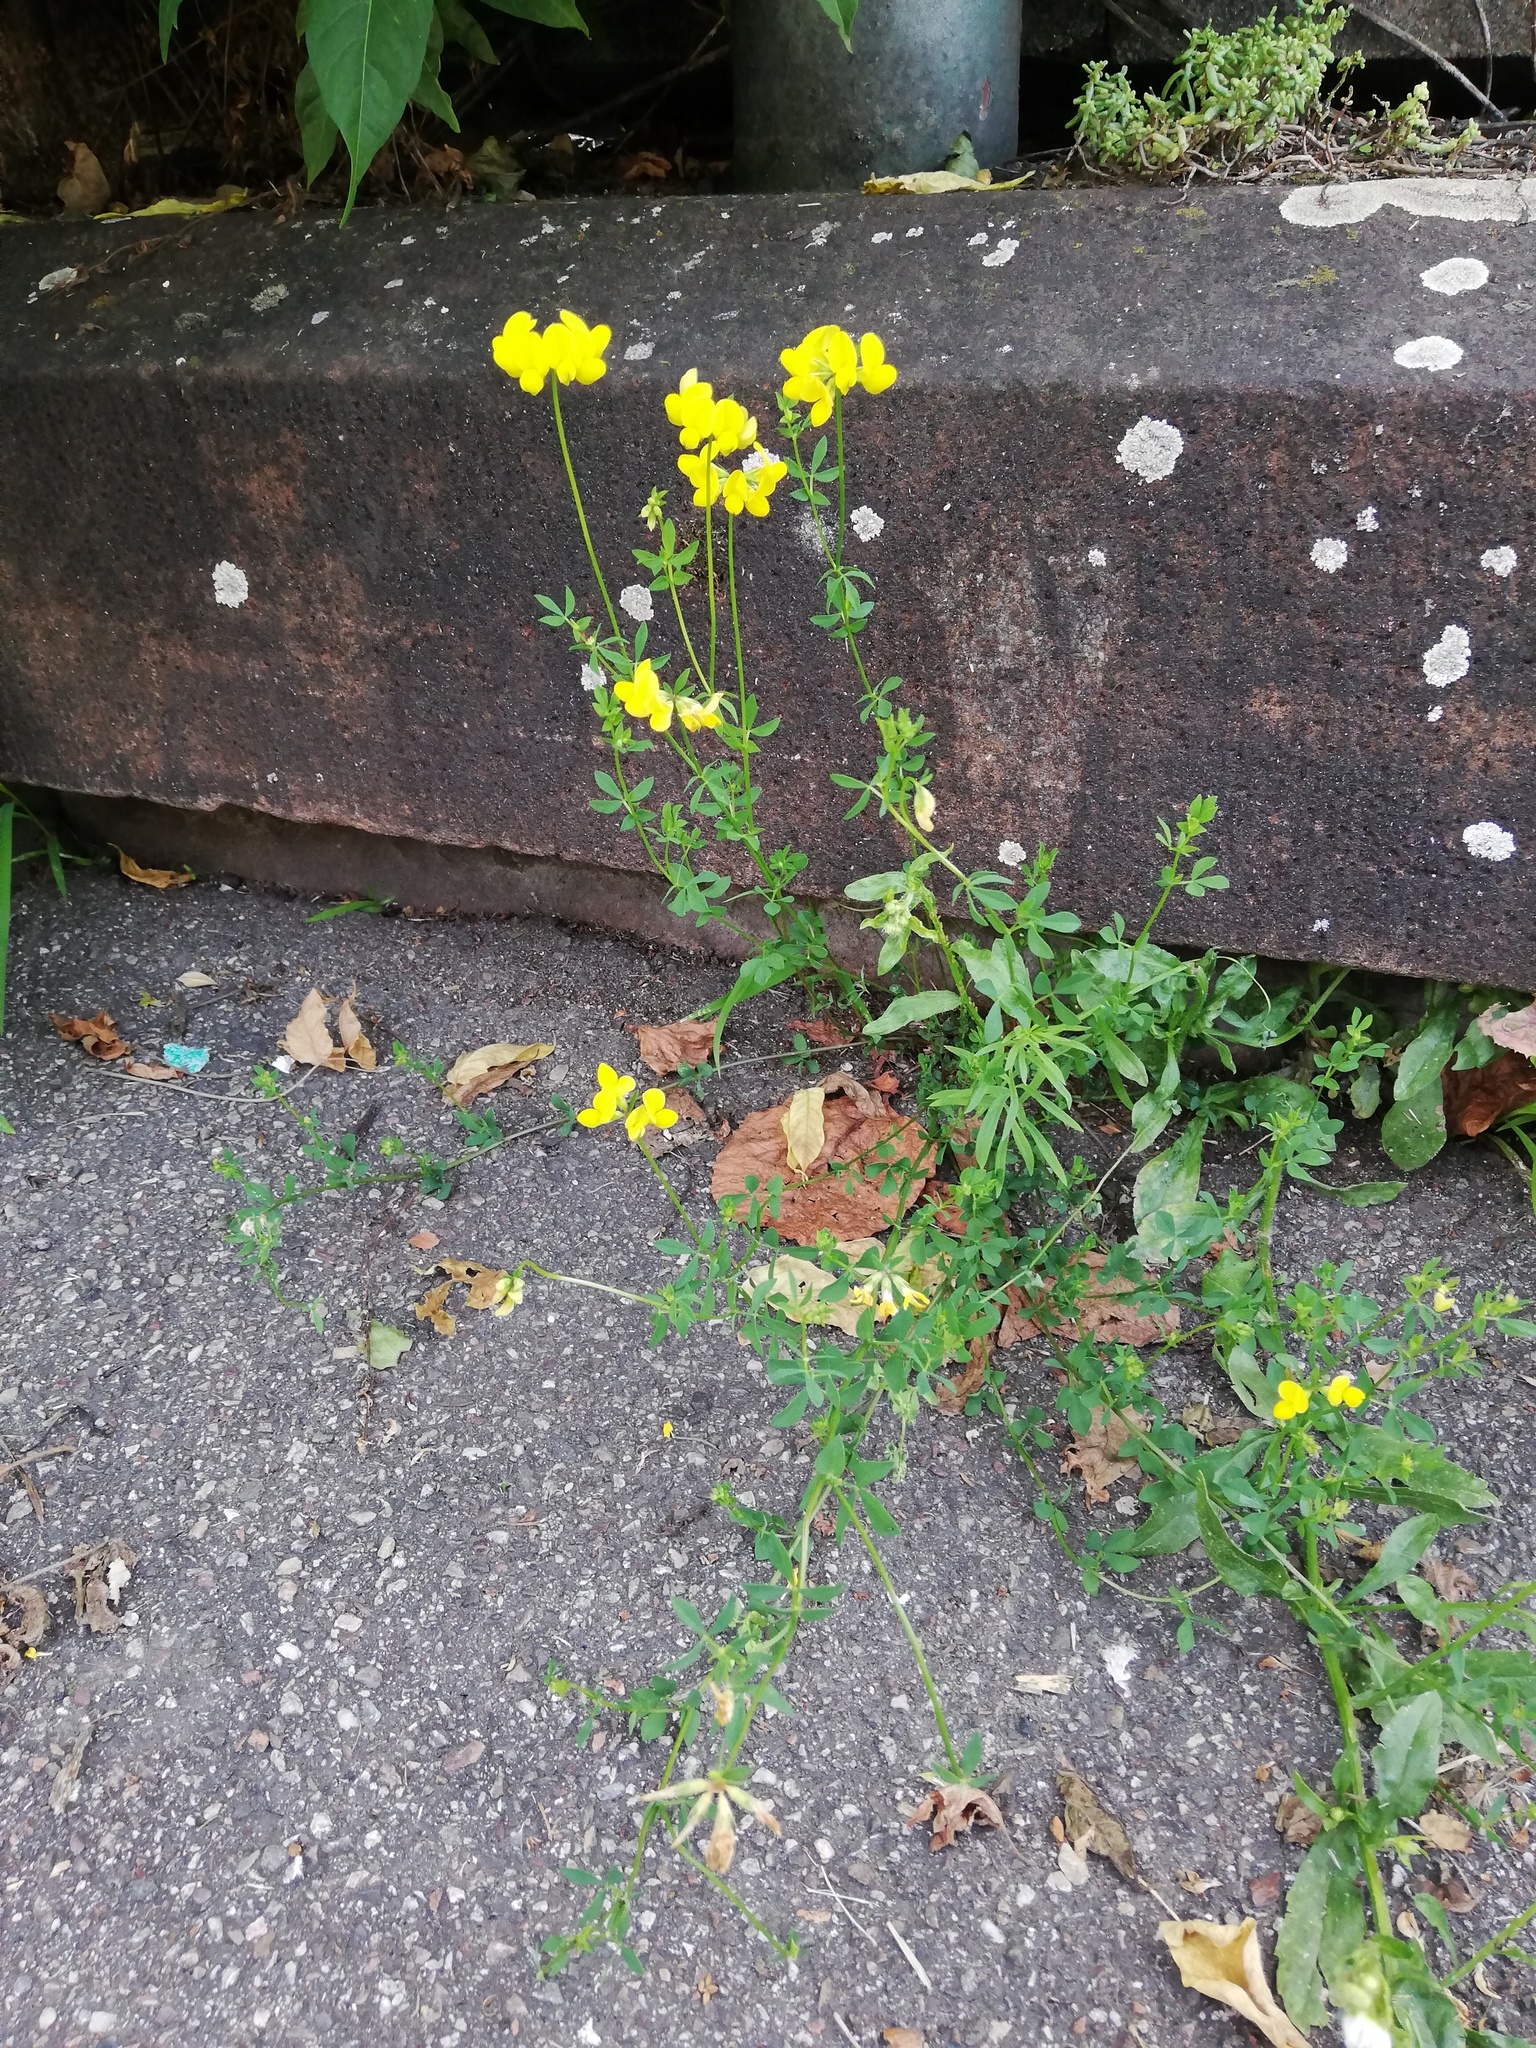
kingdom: Plantae
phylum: Tracheophyta
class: Magnoliopsida
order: Fabales
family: Fabaceae
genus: Lotus
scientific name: Lotus corniculatus
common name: Common bird's-foot-trefoil
